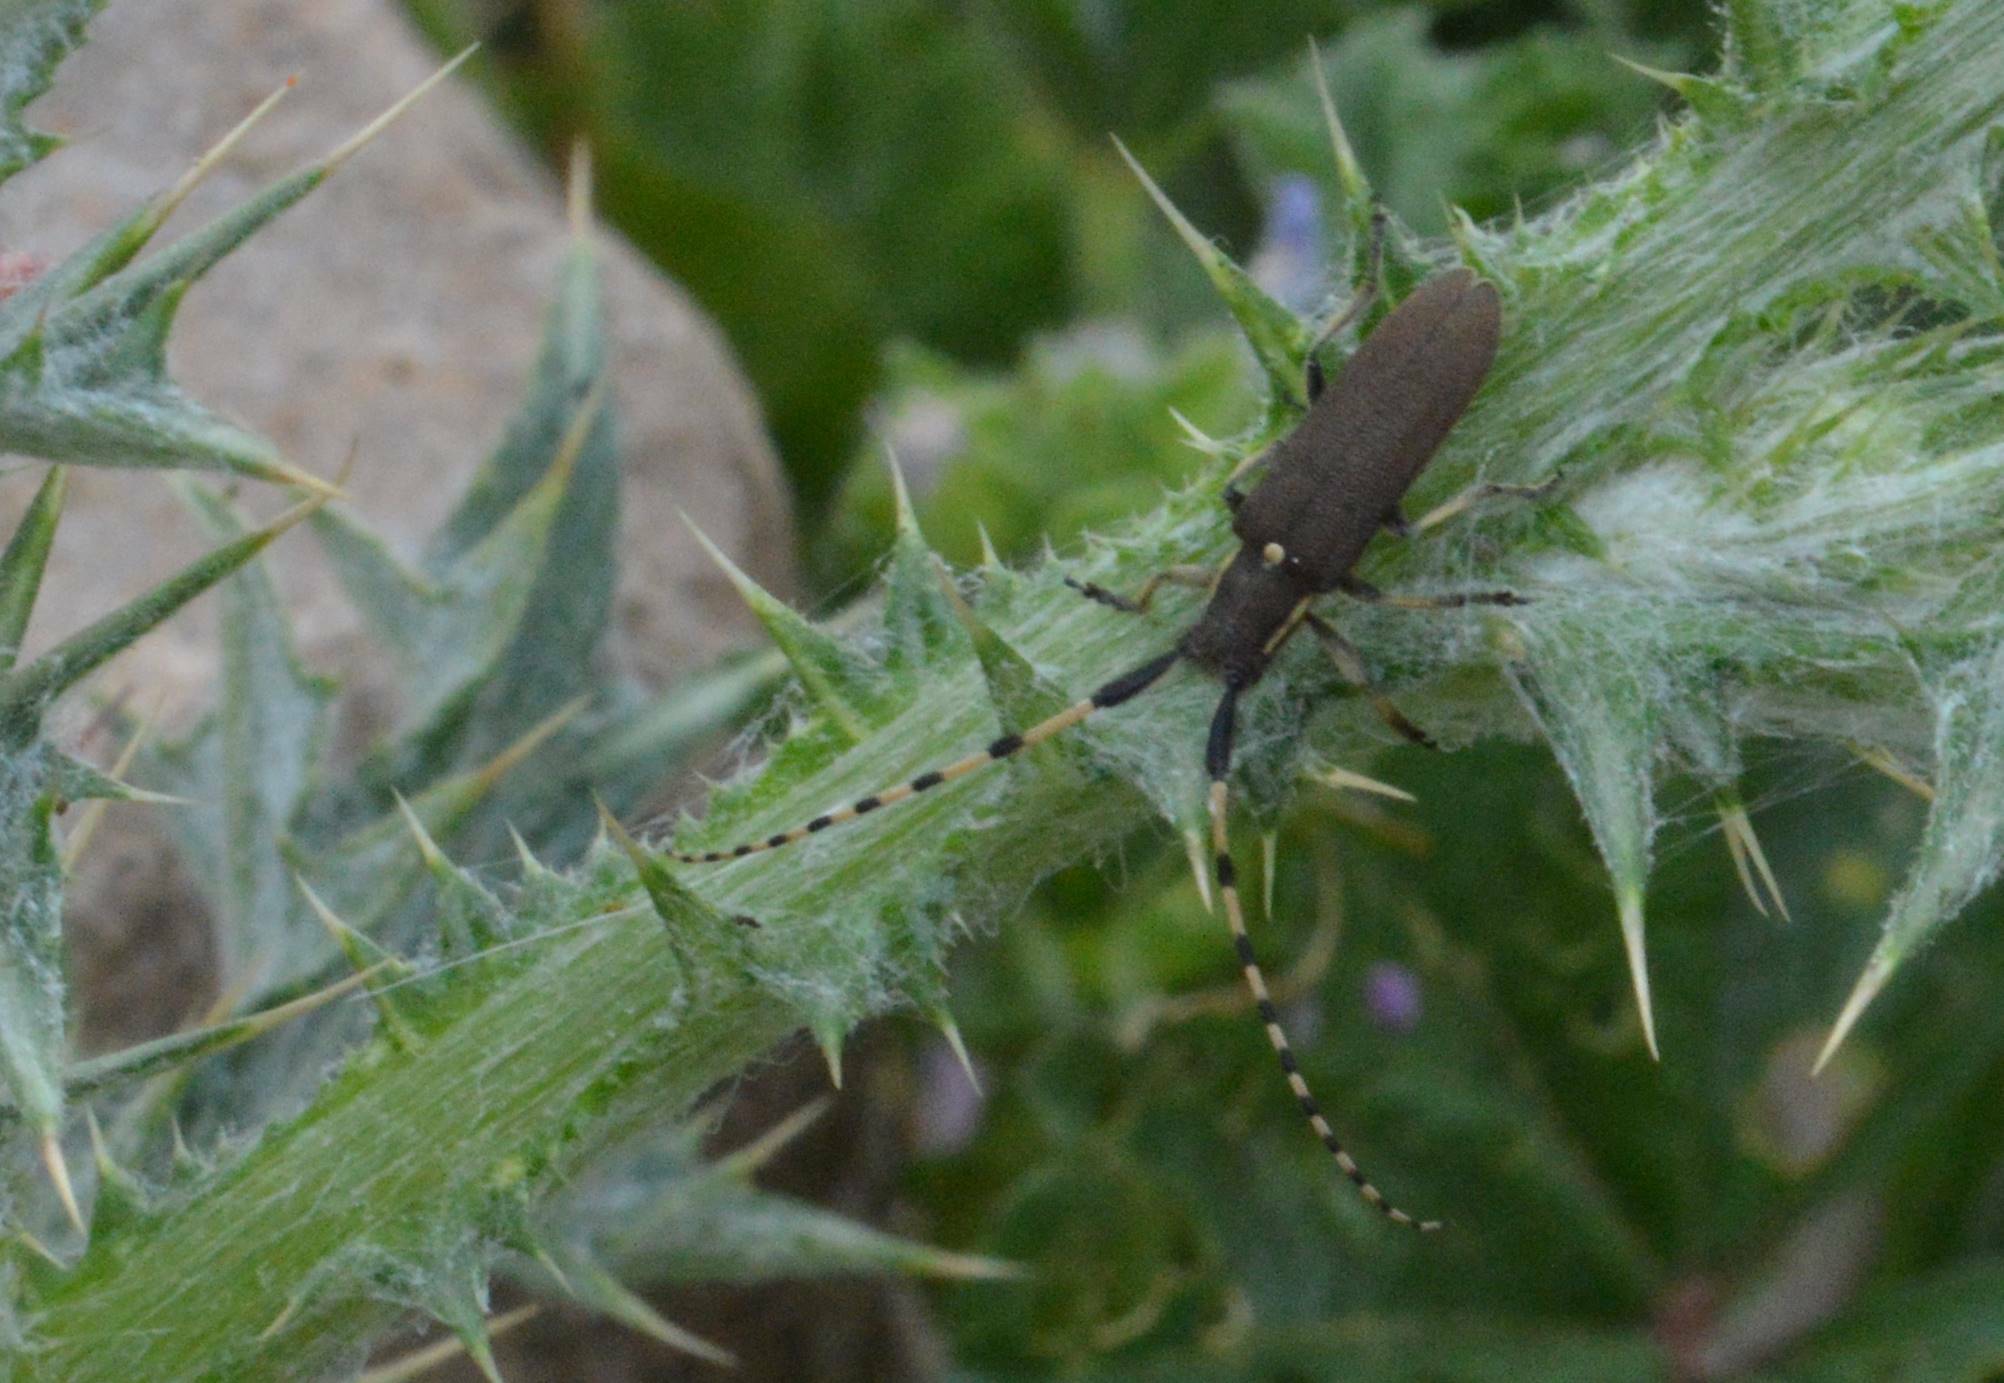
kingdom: Animalia
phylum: Arthropoda
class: Insecta
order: Coleoptera
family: Cerambycidae
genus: Agapanthia
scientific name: Agapanthia annularis
